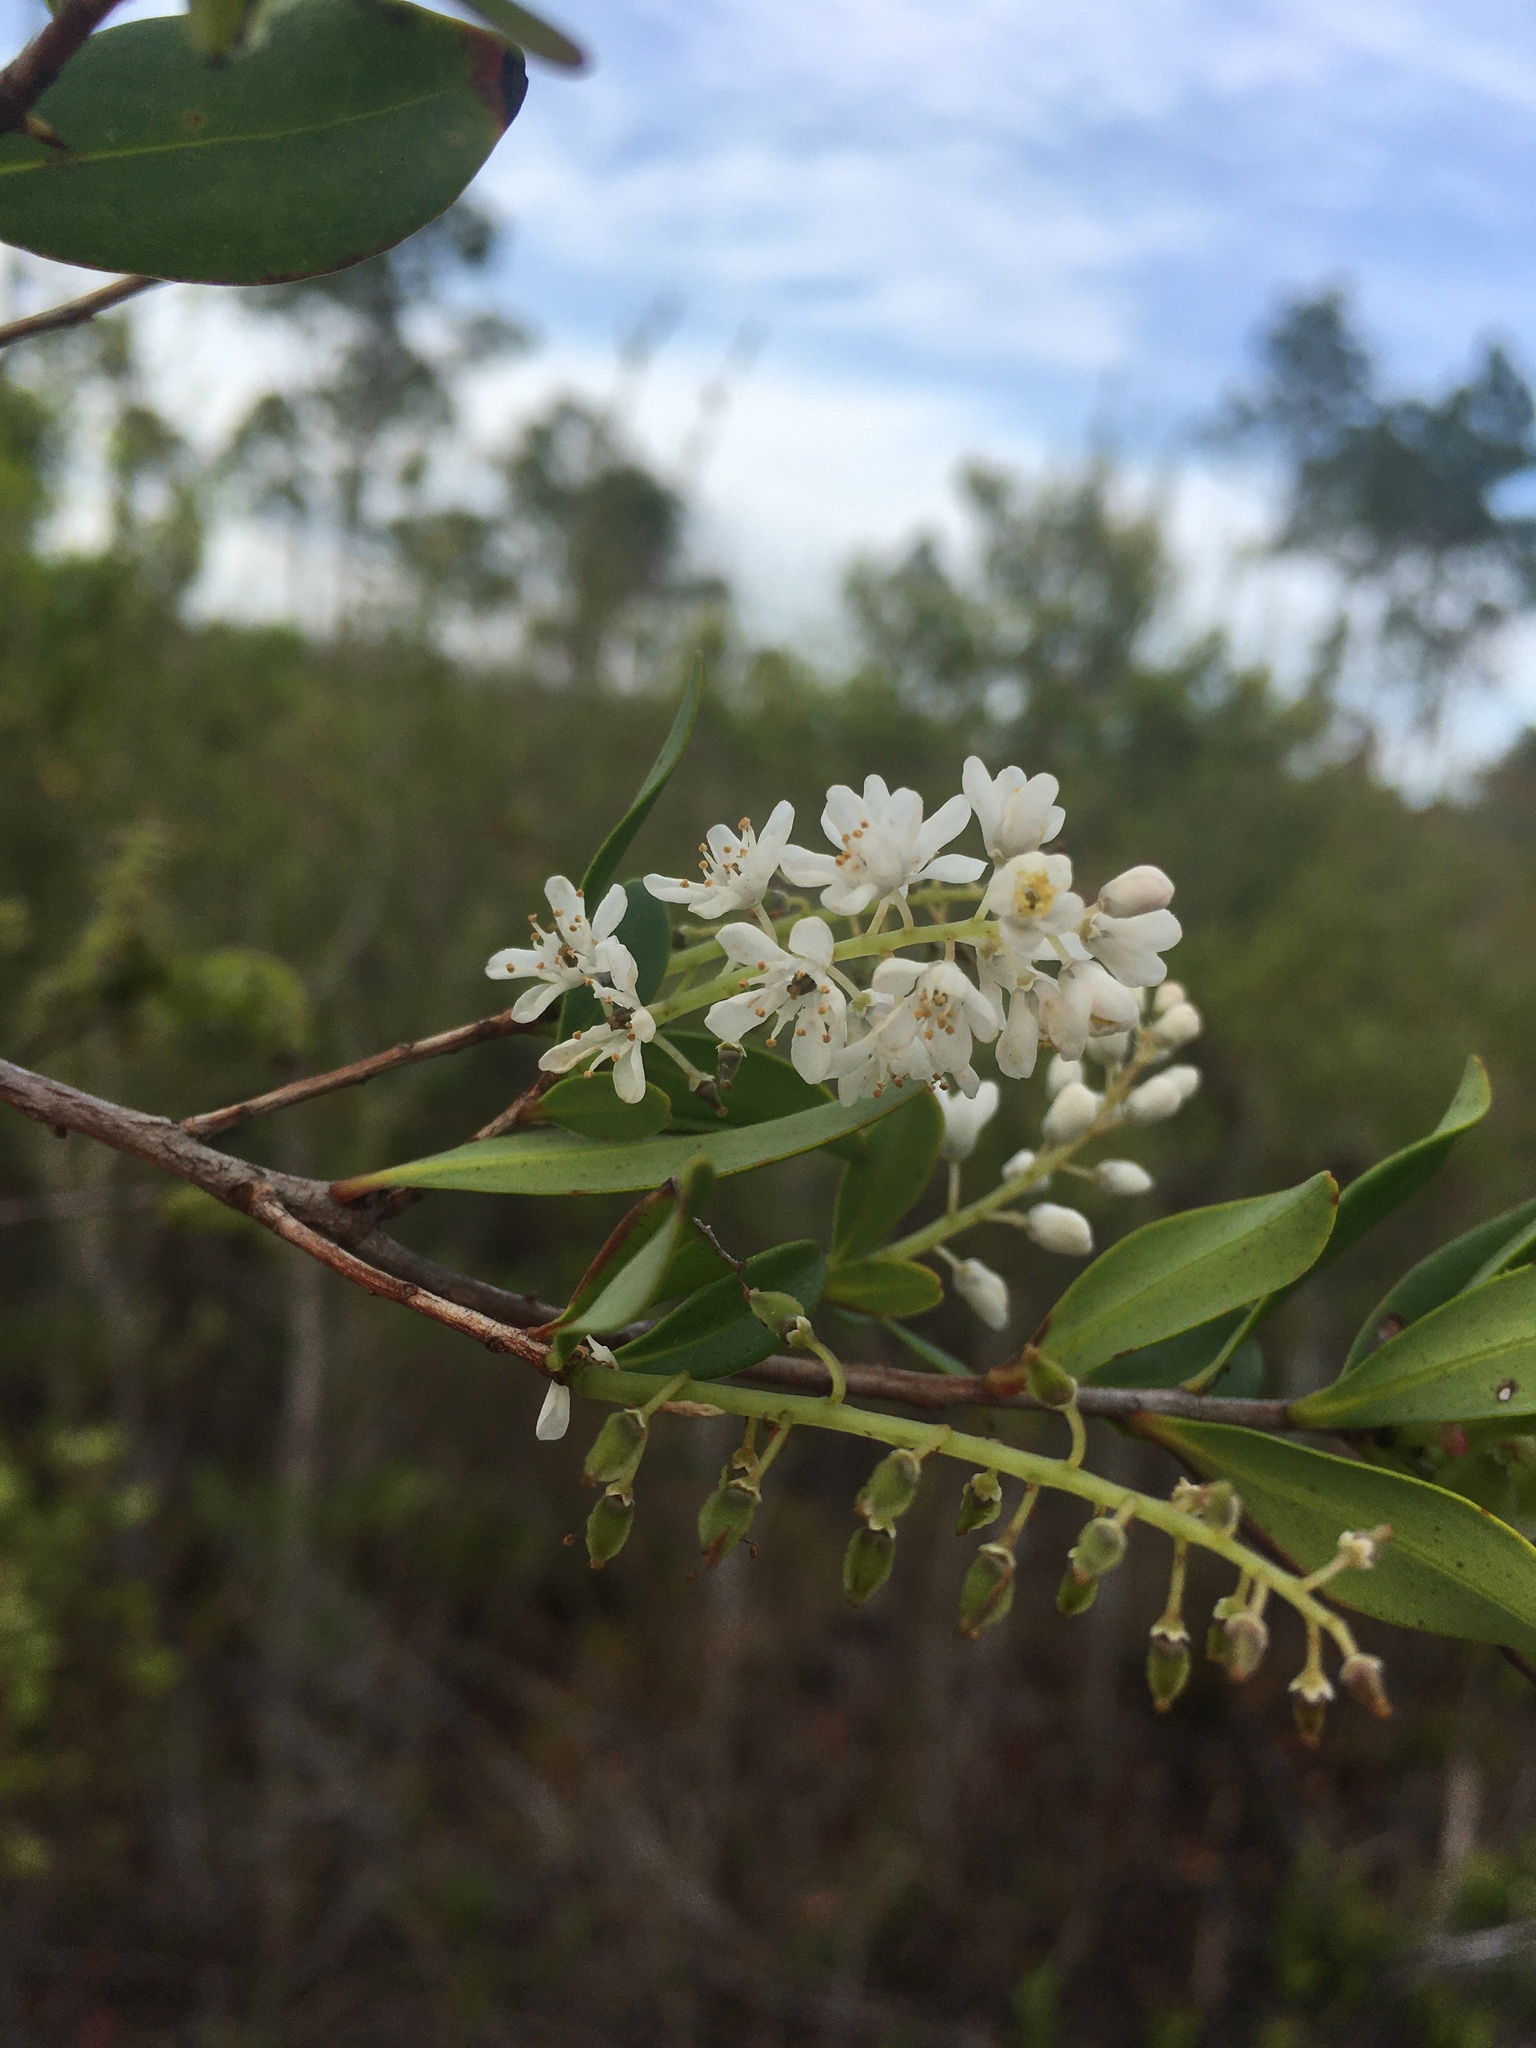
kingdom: Plantae
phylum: Tracheophyta
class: Magnoliopsida
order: Ericales
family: Cyrillaceae
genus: Cliftonia
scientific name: Cliftonia monophylla
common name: Titi
